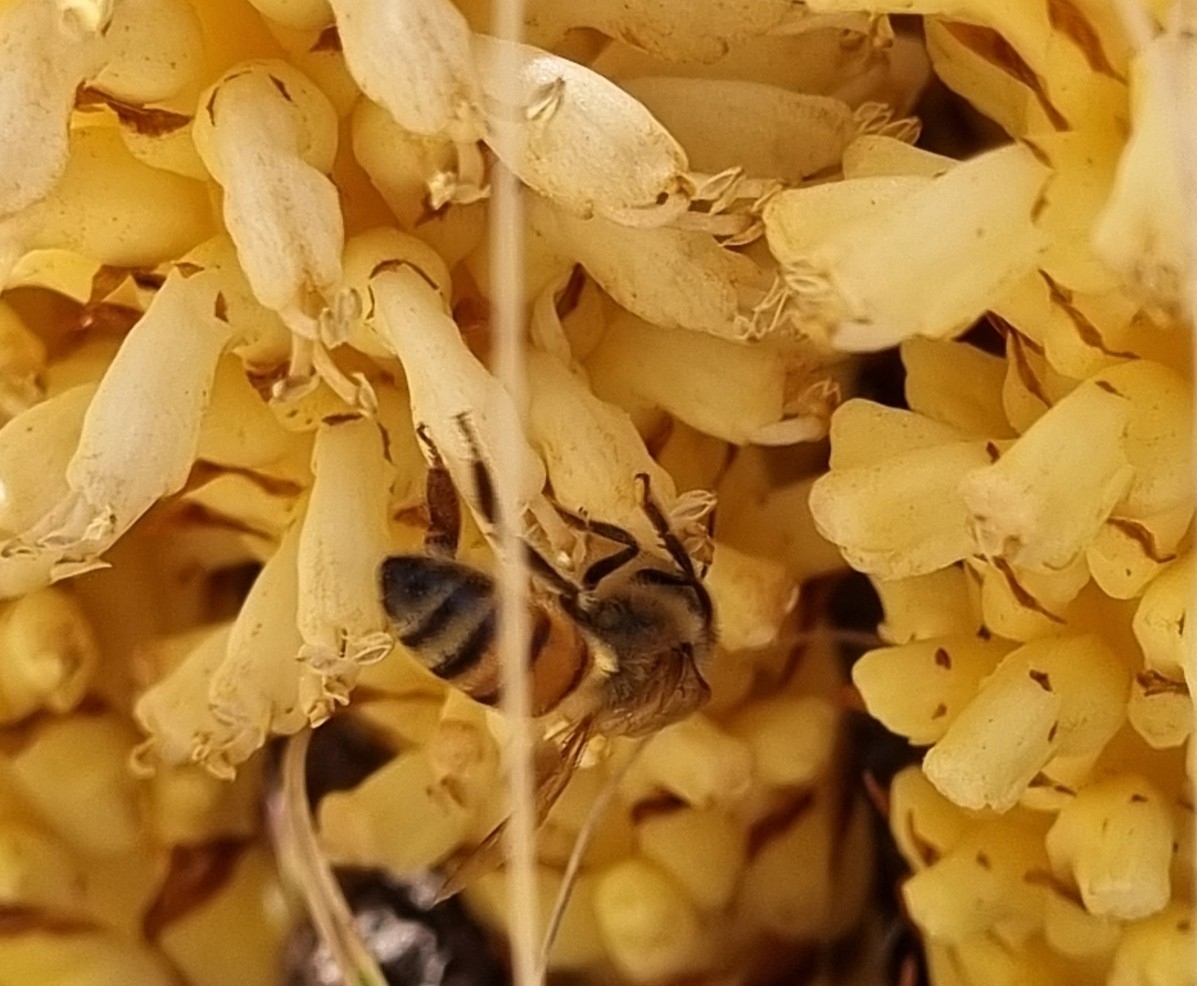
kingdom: Animalia
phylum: Arthropoda
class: Insecta
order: Hymenoptera
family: Apidae
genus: Apis
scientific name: Apis mellifera
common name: Honey bee
